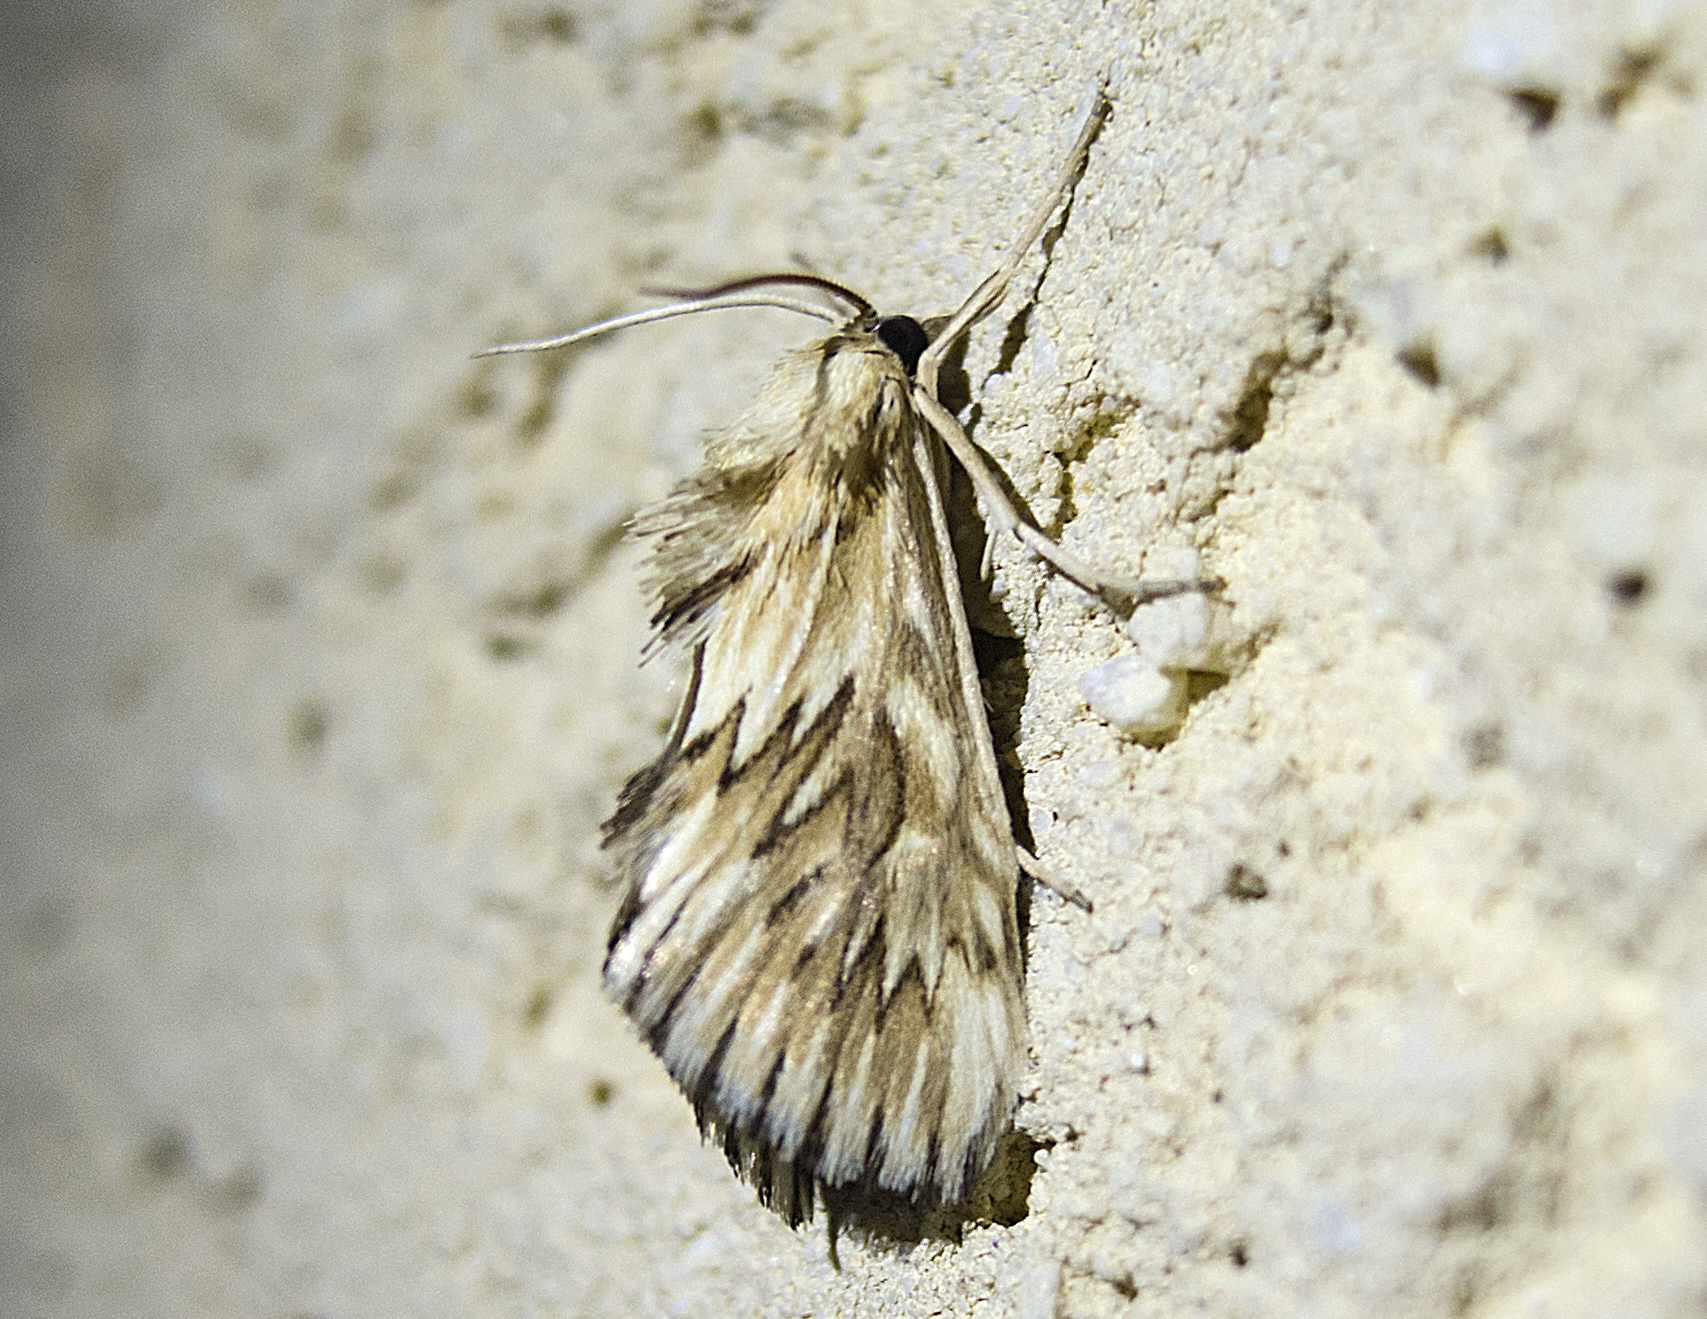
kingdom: Animalia
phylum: Arthropoda
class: Insecta
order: Lepidoptera
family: Crambidae
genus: Cynaeda
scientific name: Cynaeda dentalis
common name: Starry pearl
